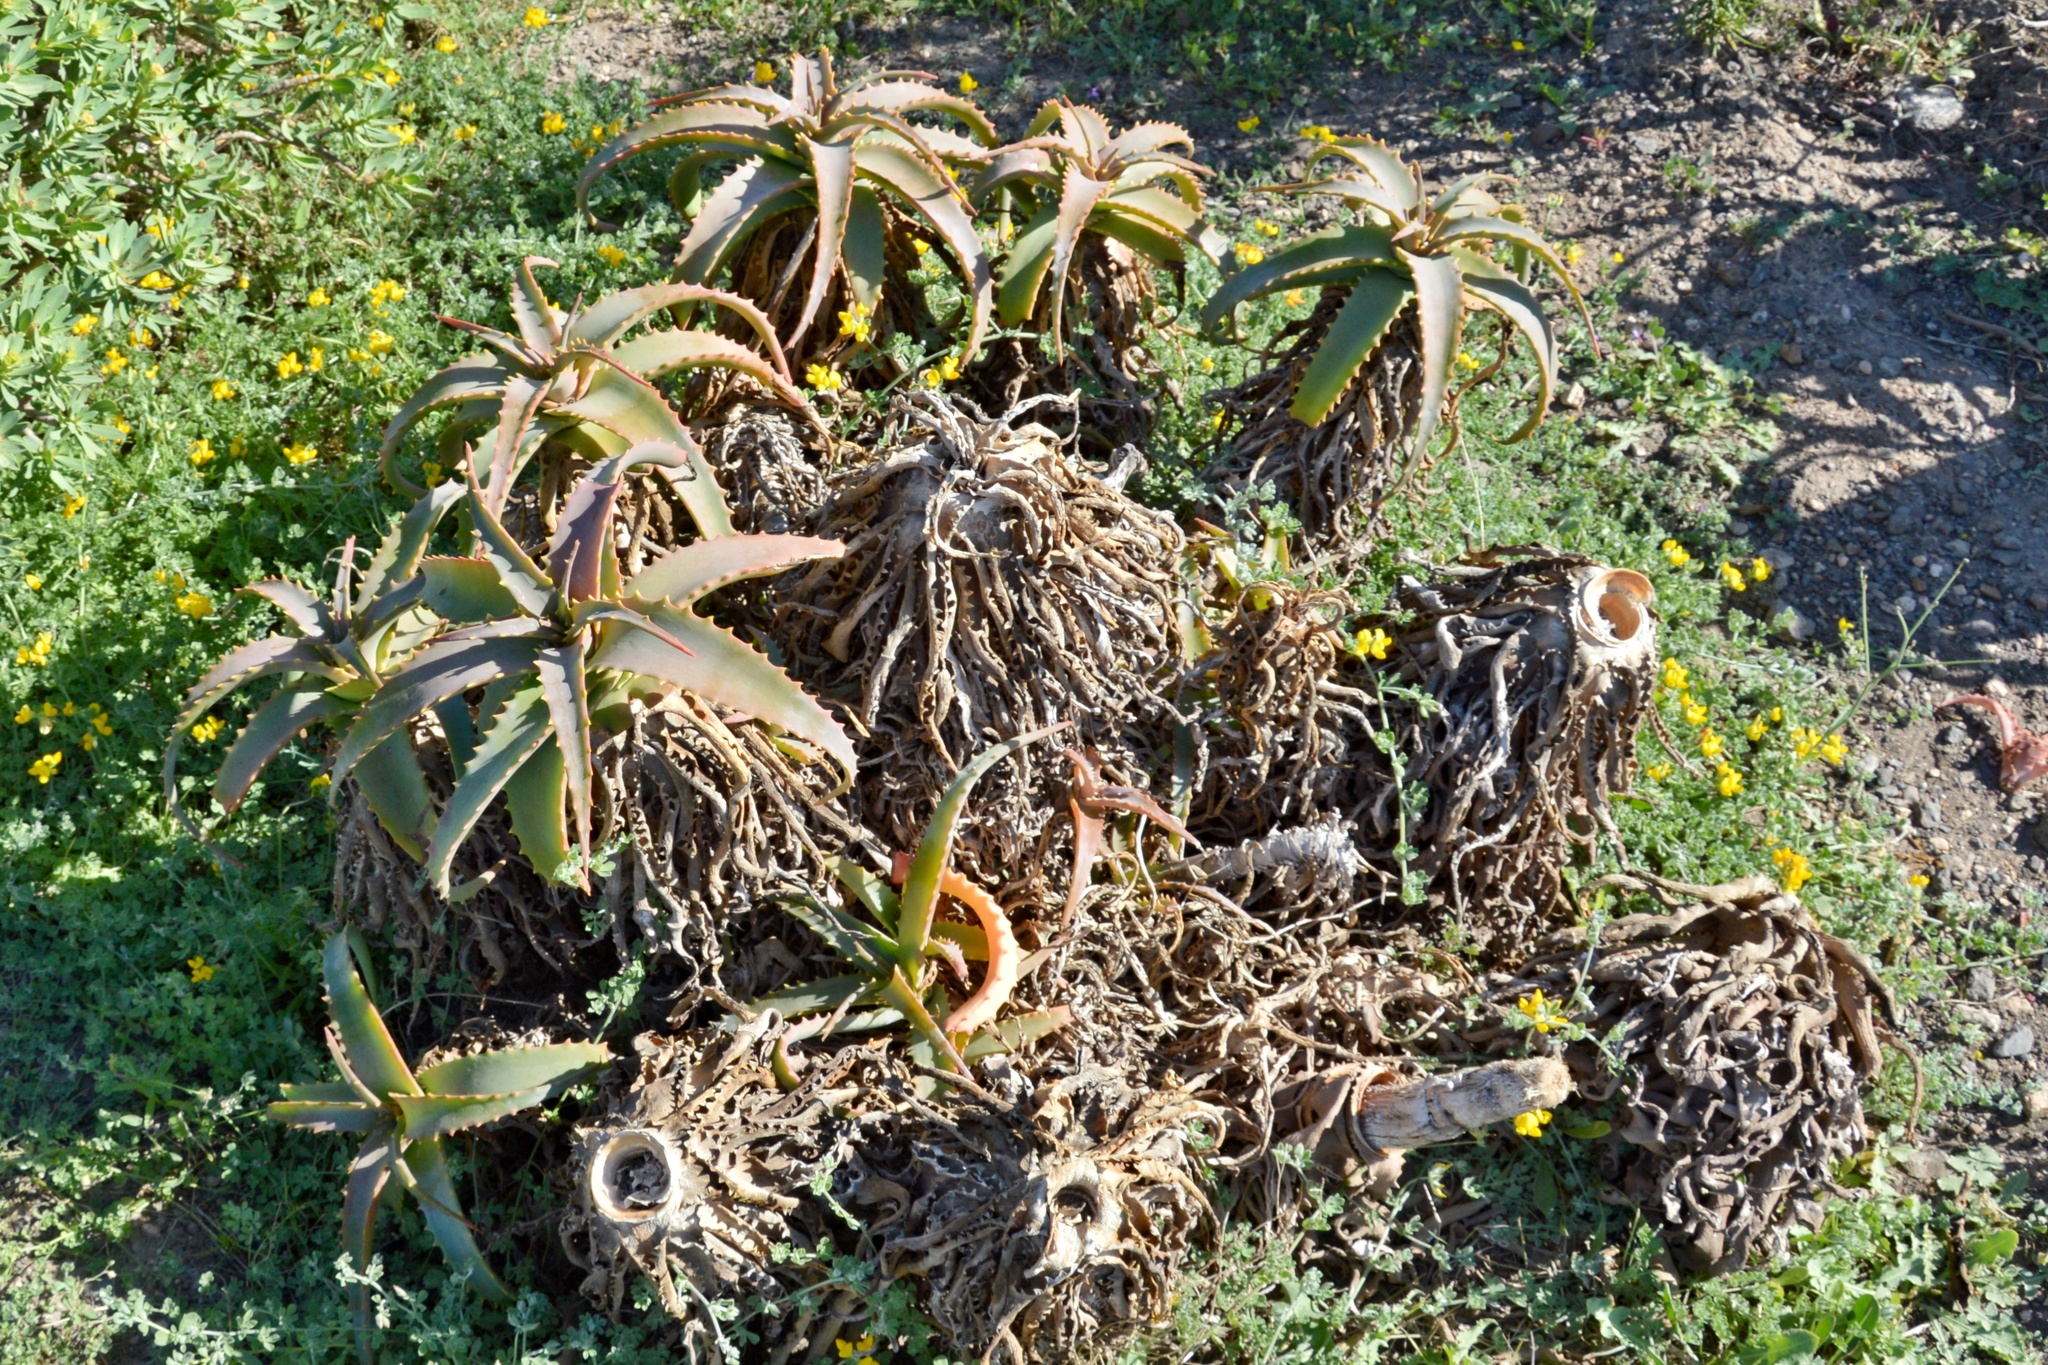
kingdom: Plantae
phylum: Tracheophyta
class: Liliopsida
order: Asparagales
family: Asphodelaceae
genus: Aloe
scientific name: Aloe arborescens
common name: Candelabra aloe
